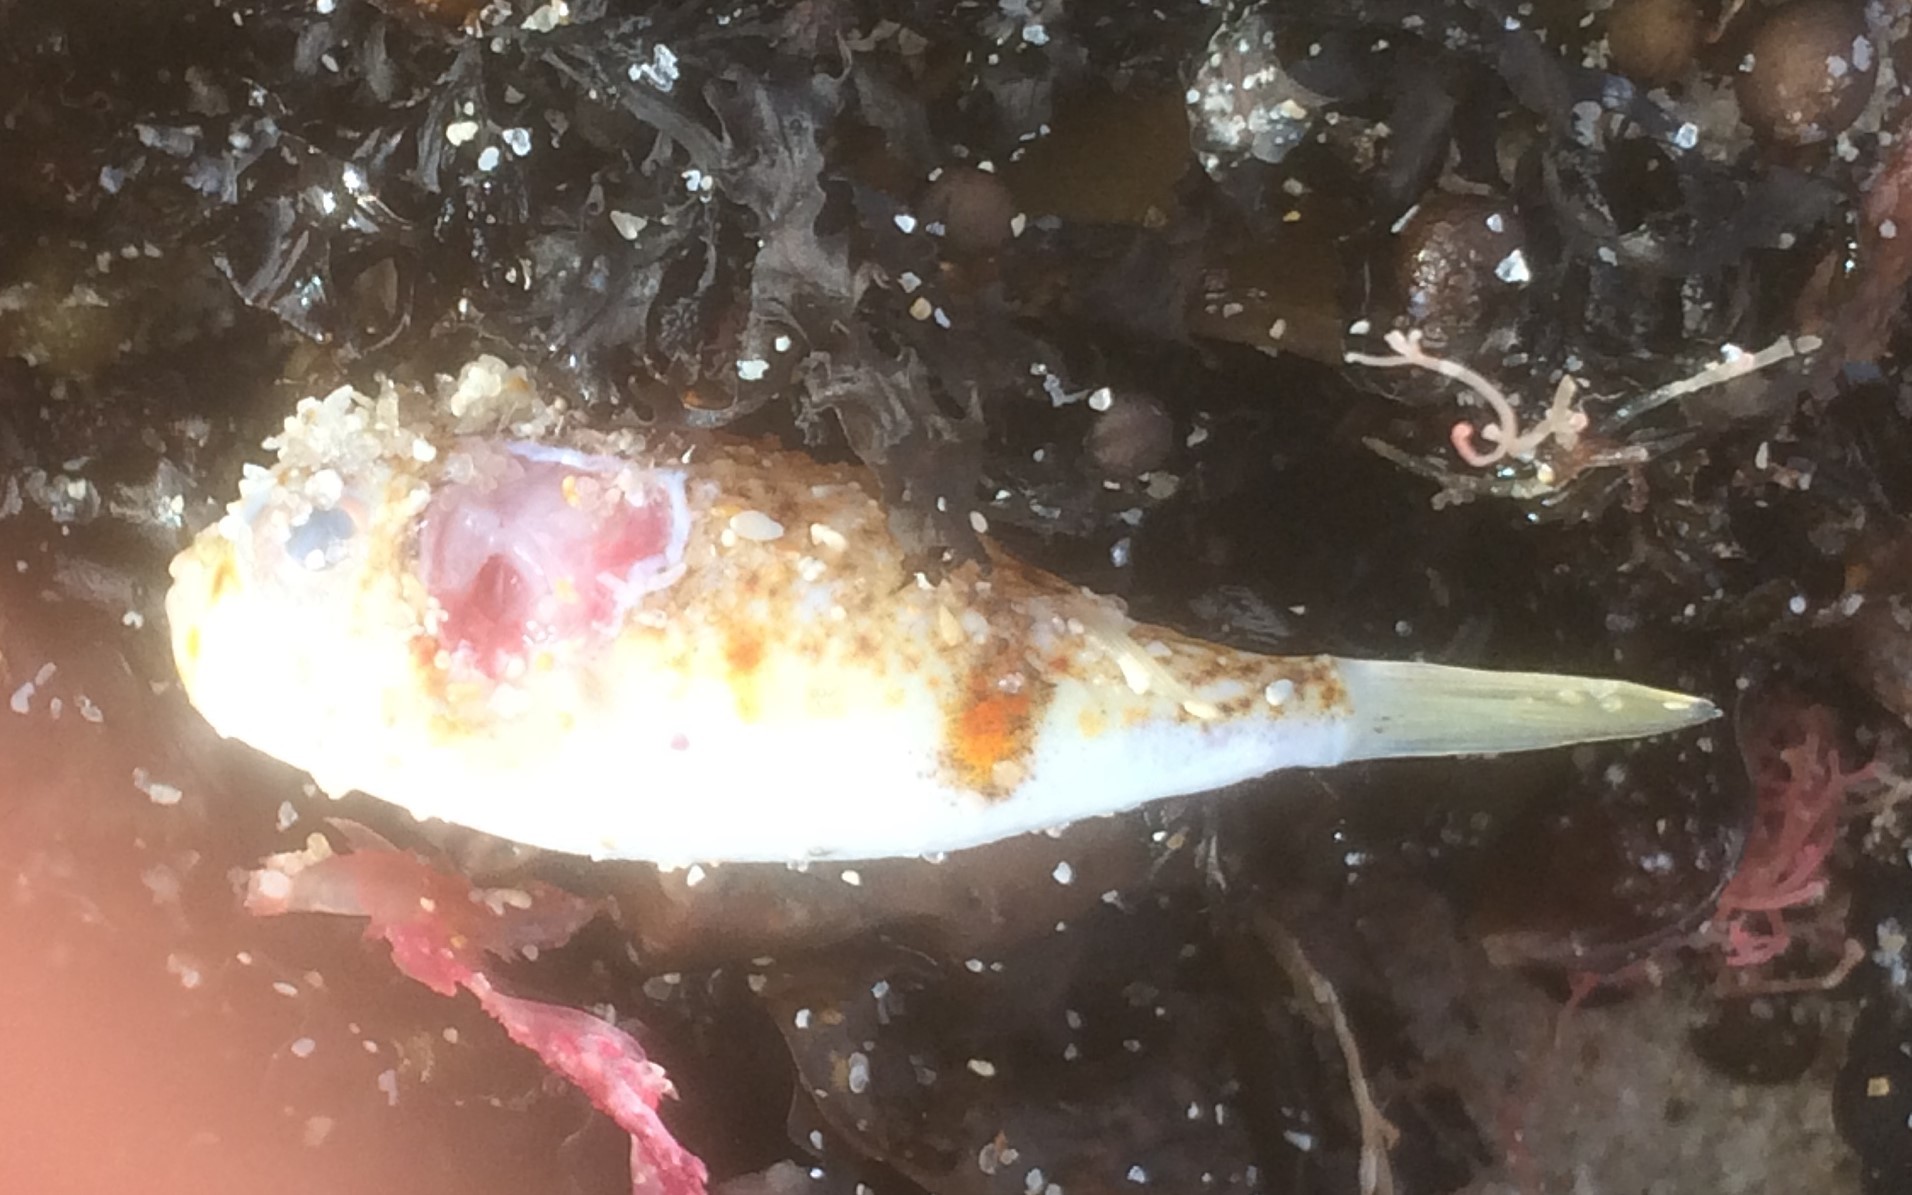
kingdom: Animalia
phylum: Chordata
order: Tetraodontiformes
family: Tetraodontidae
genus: Polyspina
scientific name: Polyspina piosae
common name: Orange-barred pufferfish
